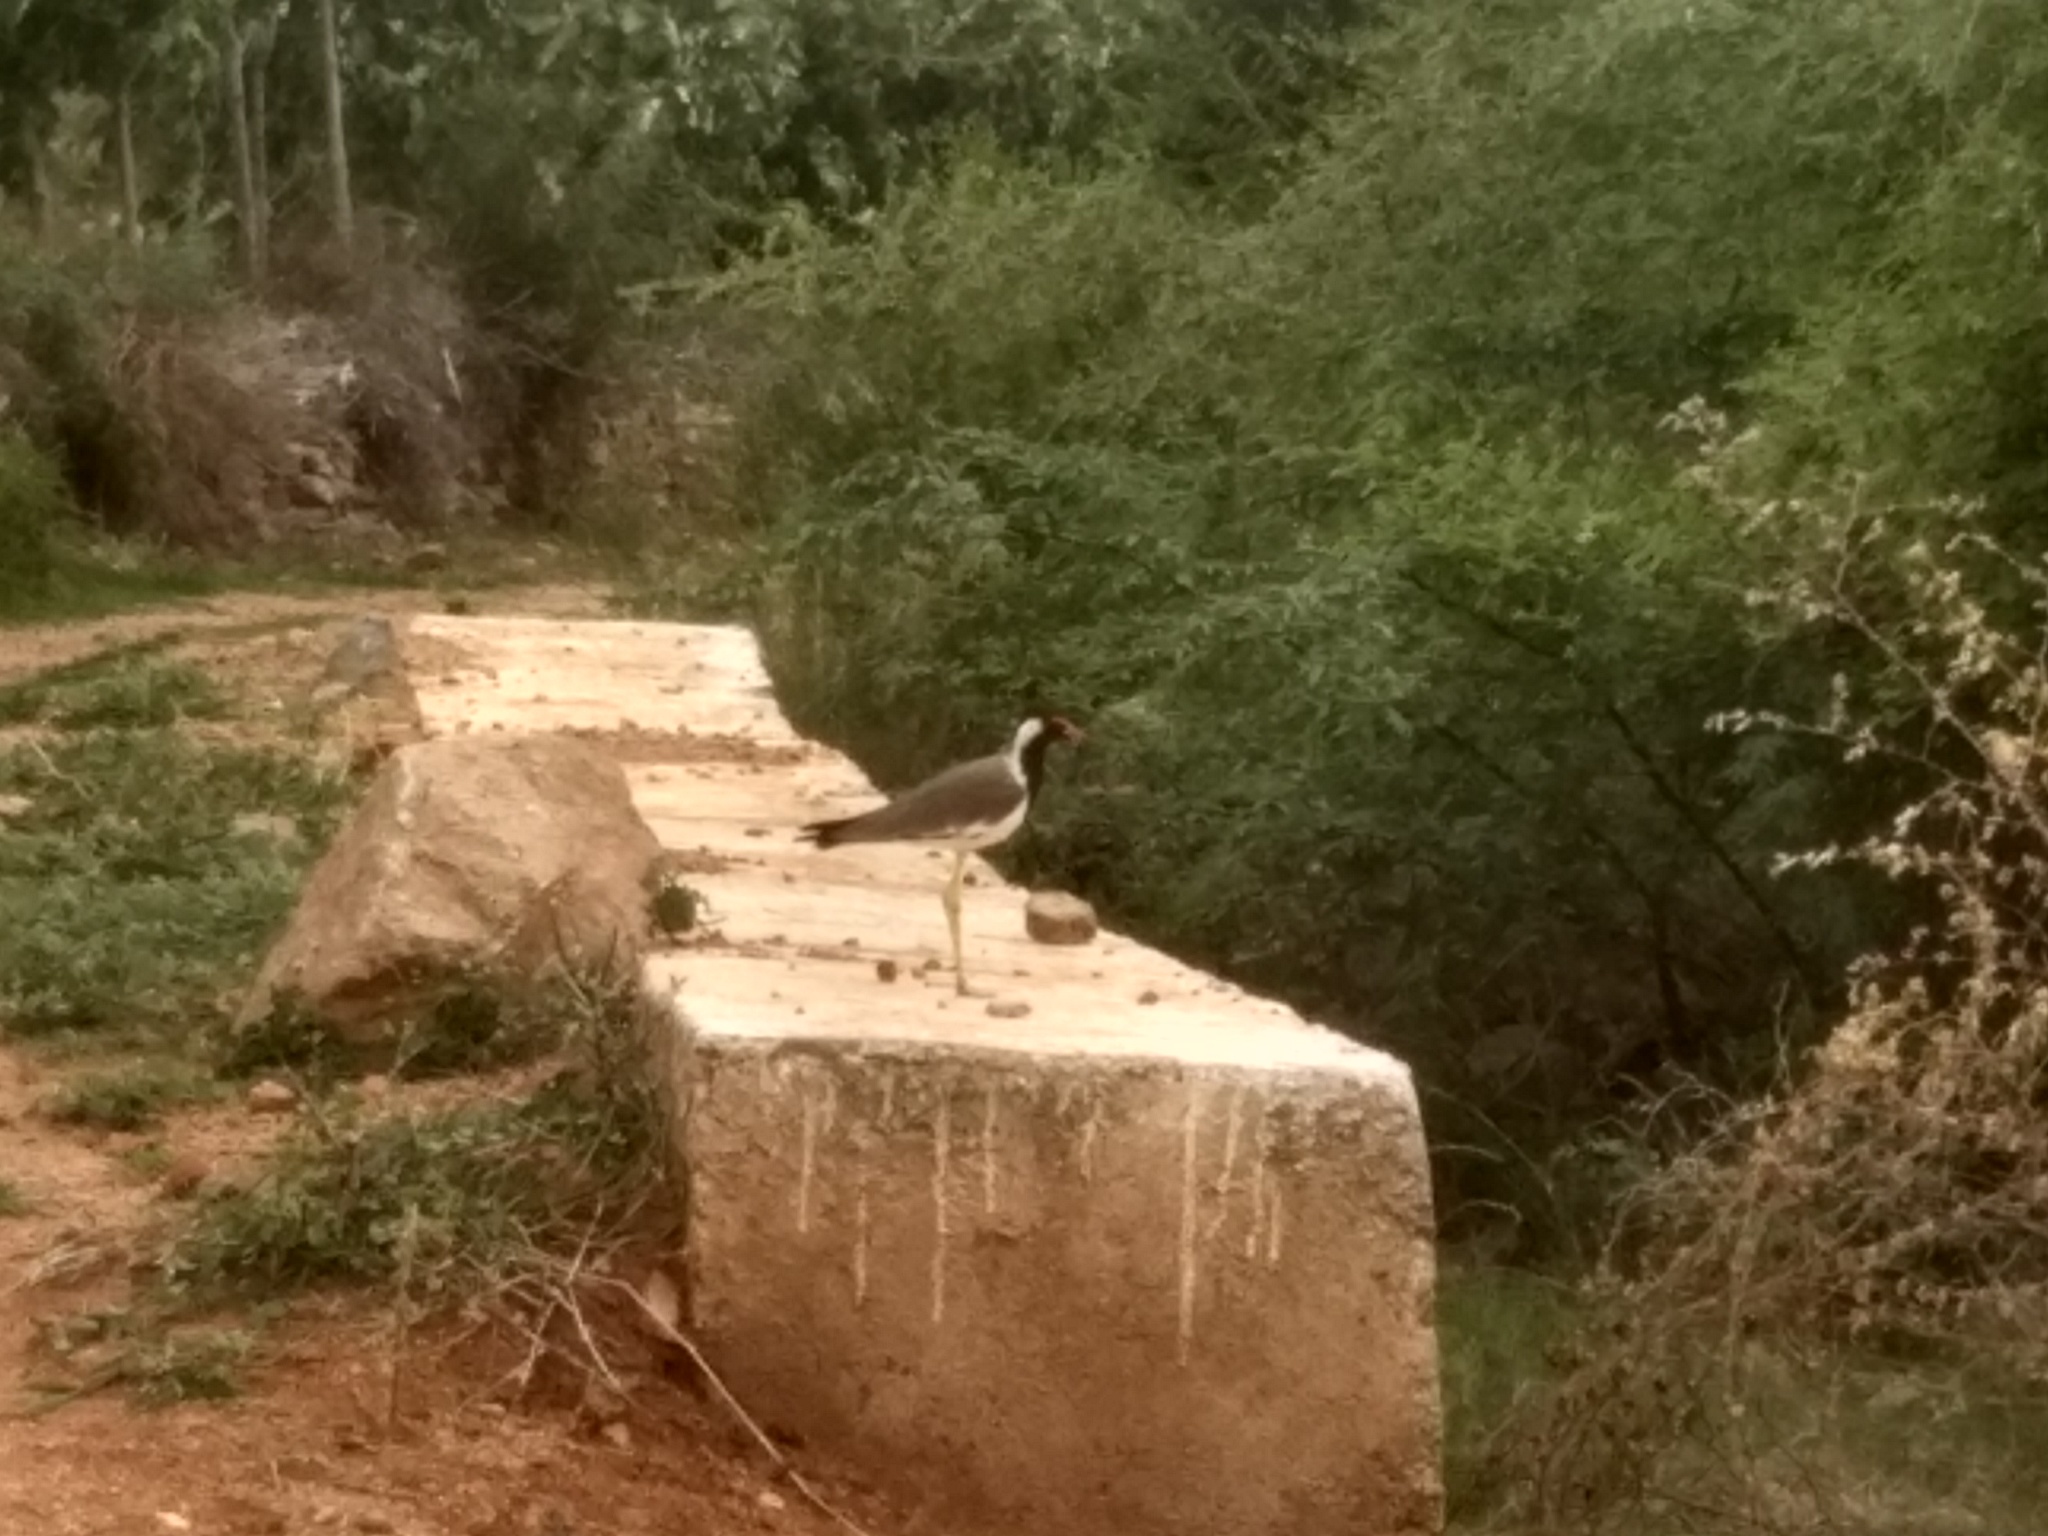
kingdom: Animalia
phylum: Chordata
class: Aves
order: Charadriiformes
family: Charadriidae
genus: Vanellus
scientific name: Vanellus indicus
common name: Red-wattled lapwing
